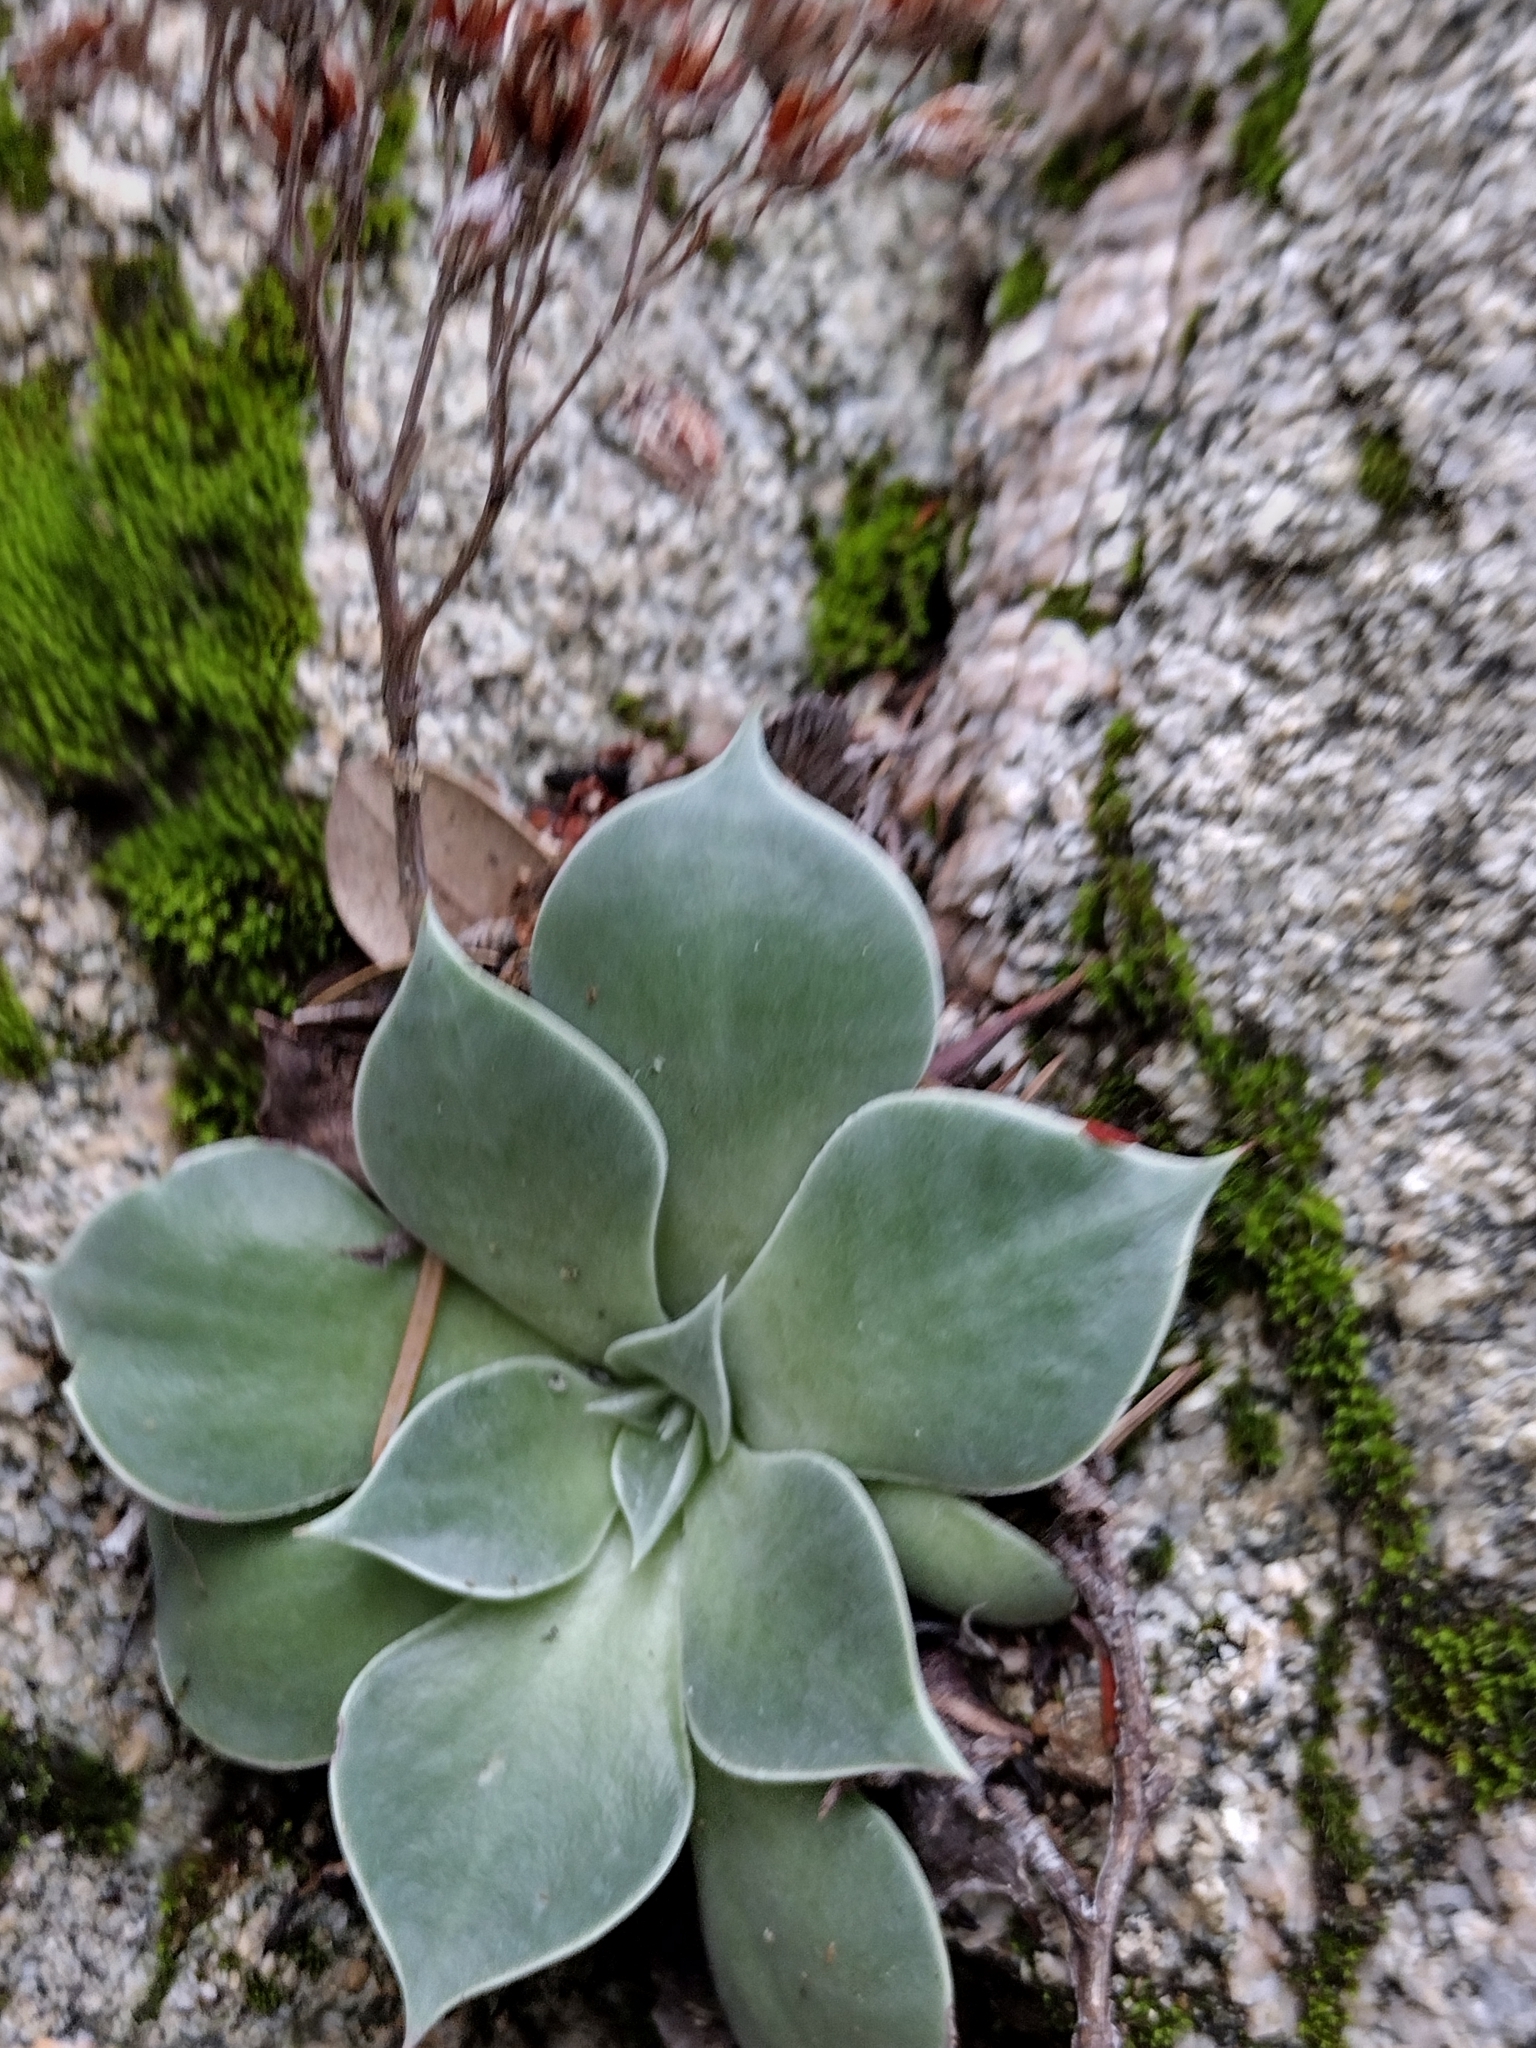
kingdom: Plantae
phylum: Tracheophyta
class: Magnoliopsida
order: Saxifragales
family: Crassulaceae
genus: Dudleya
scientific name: Dudleya cymosa
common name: Canyon dudleya
